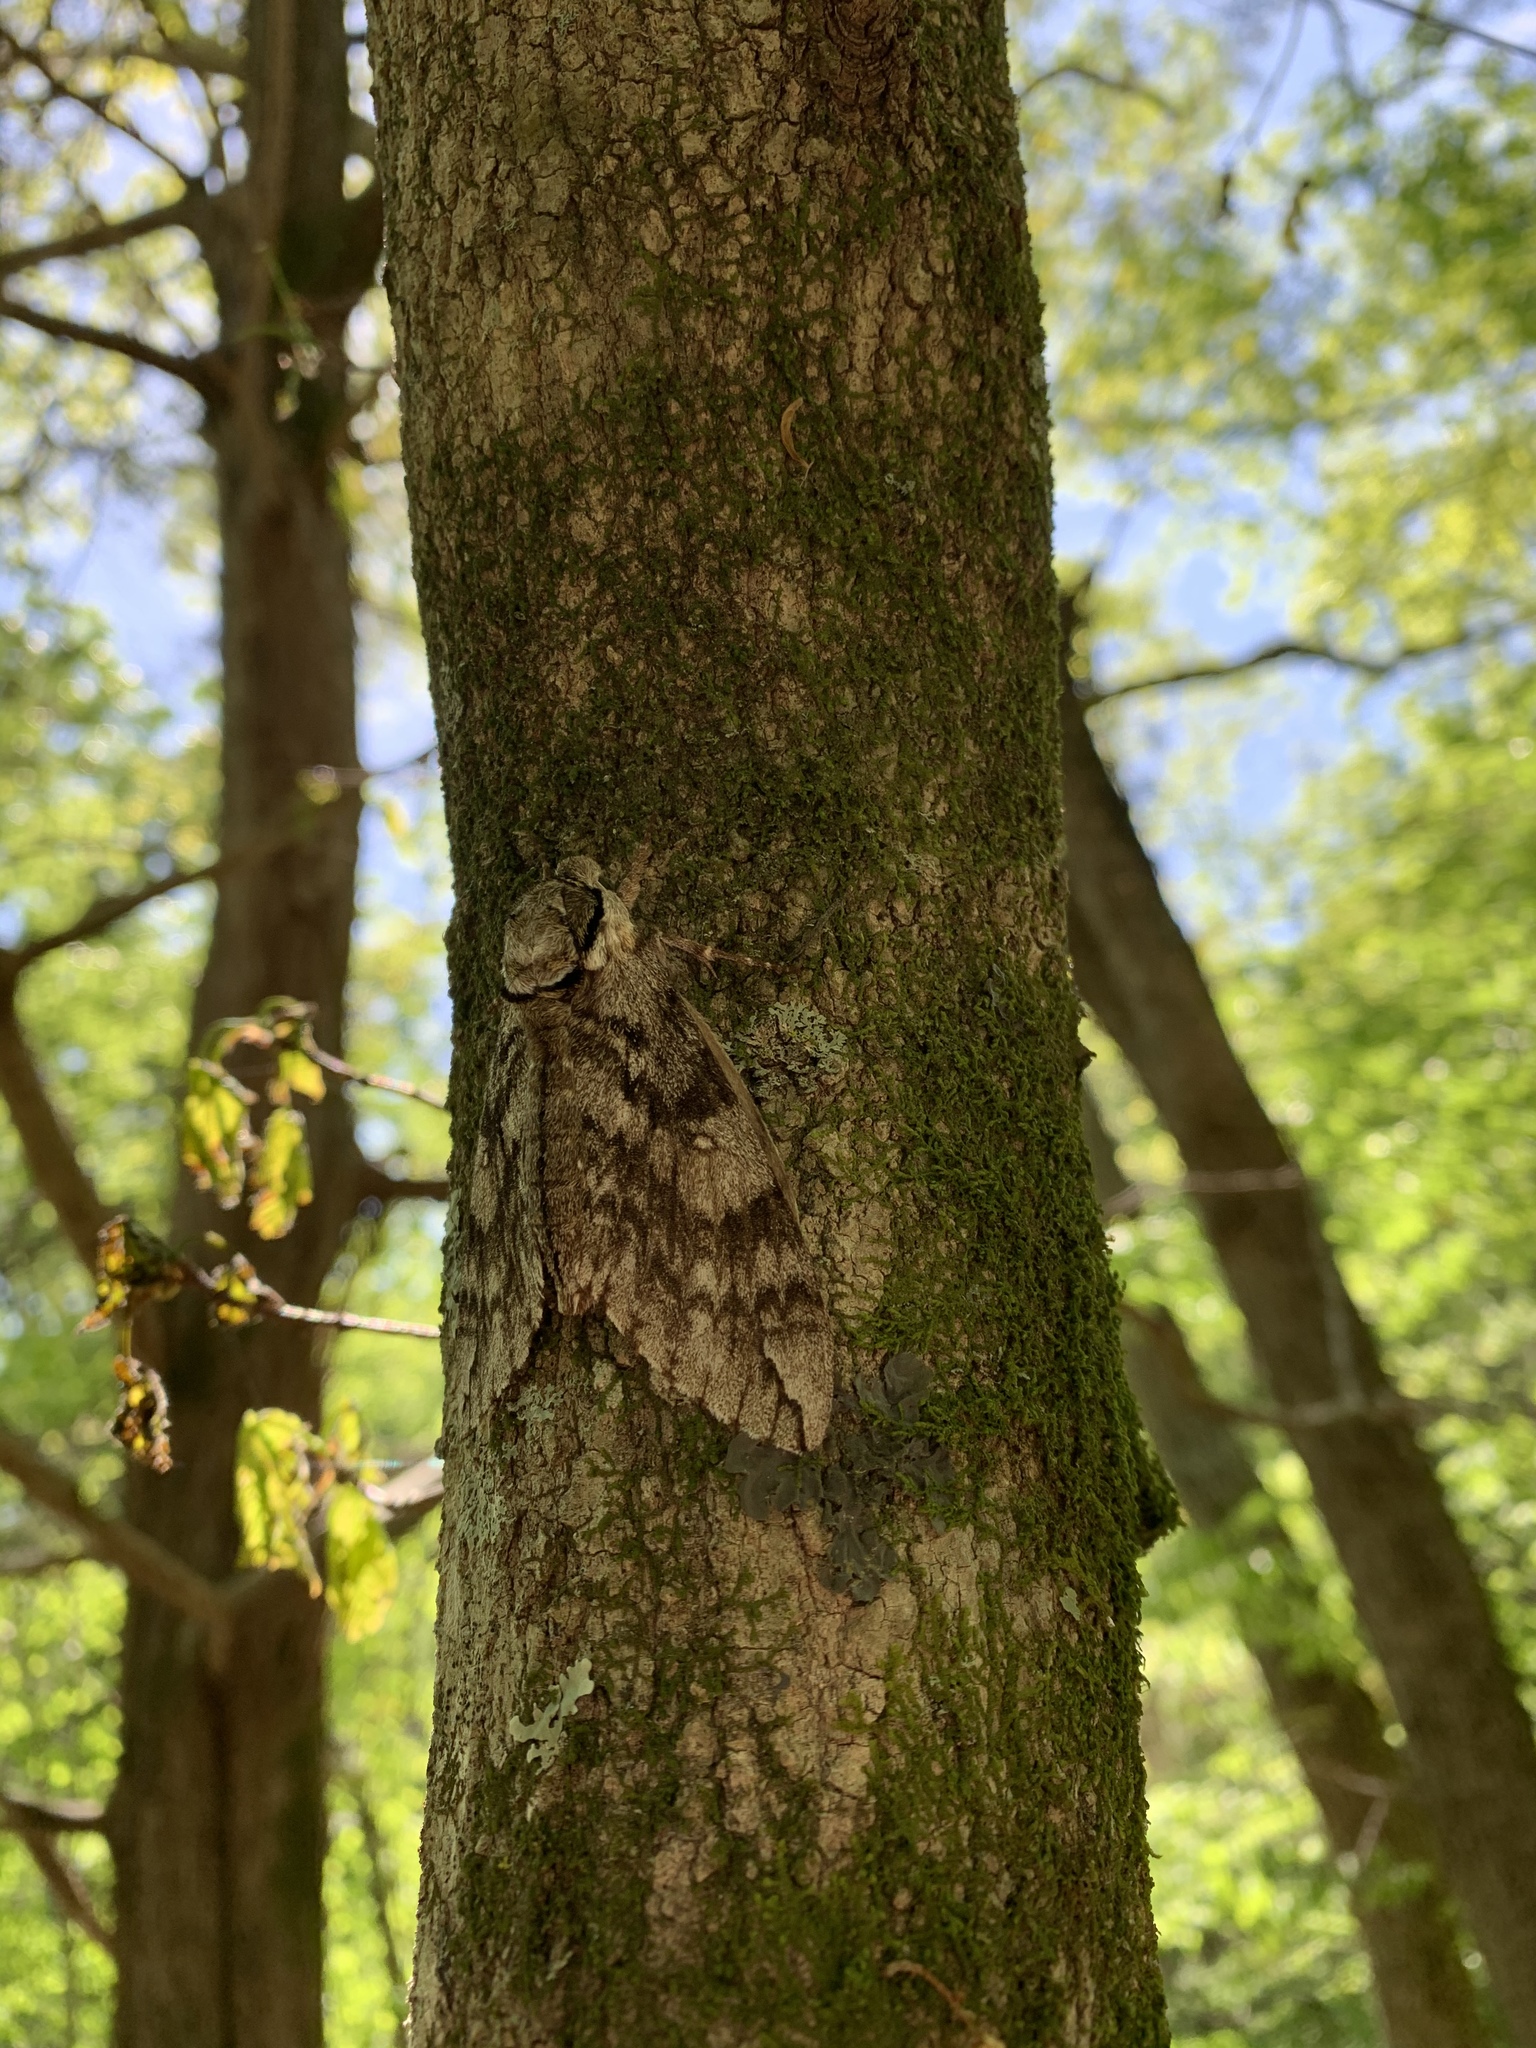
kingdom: Animalia
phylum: Arthropoda
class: Insecta
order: Lepidoptera
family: Sphingidae
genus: Ceratomia
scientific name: Ceratomia undulosa
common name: Waved sphinx
